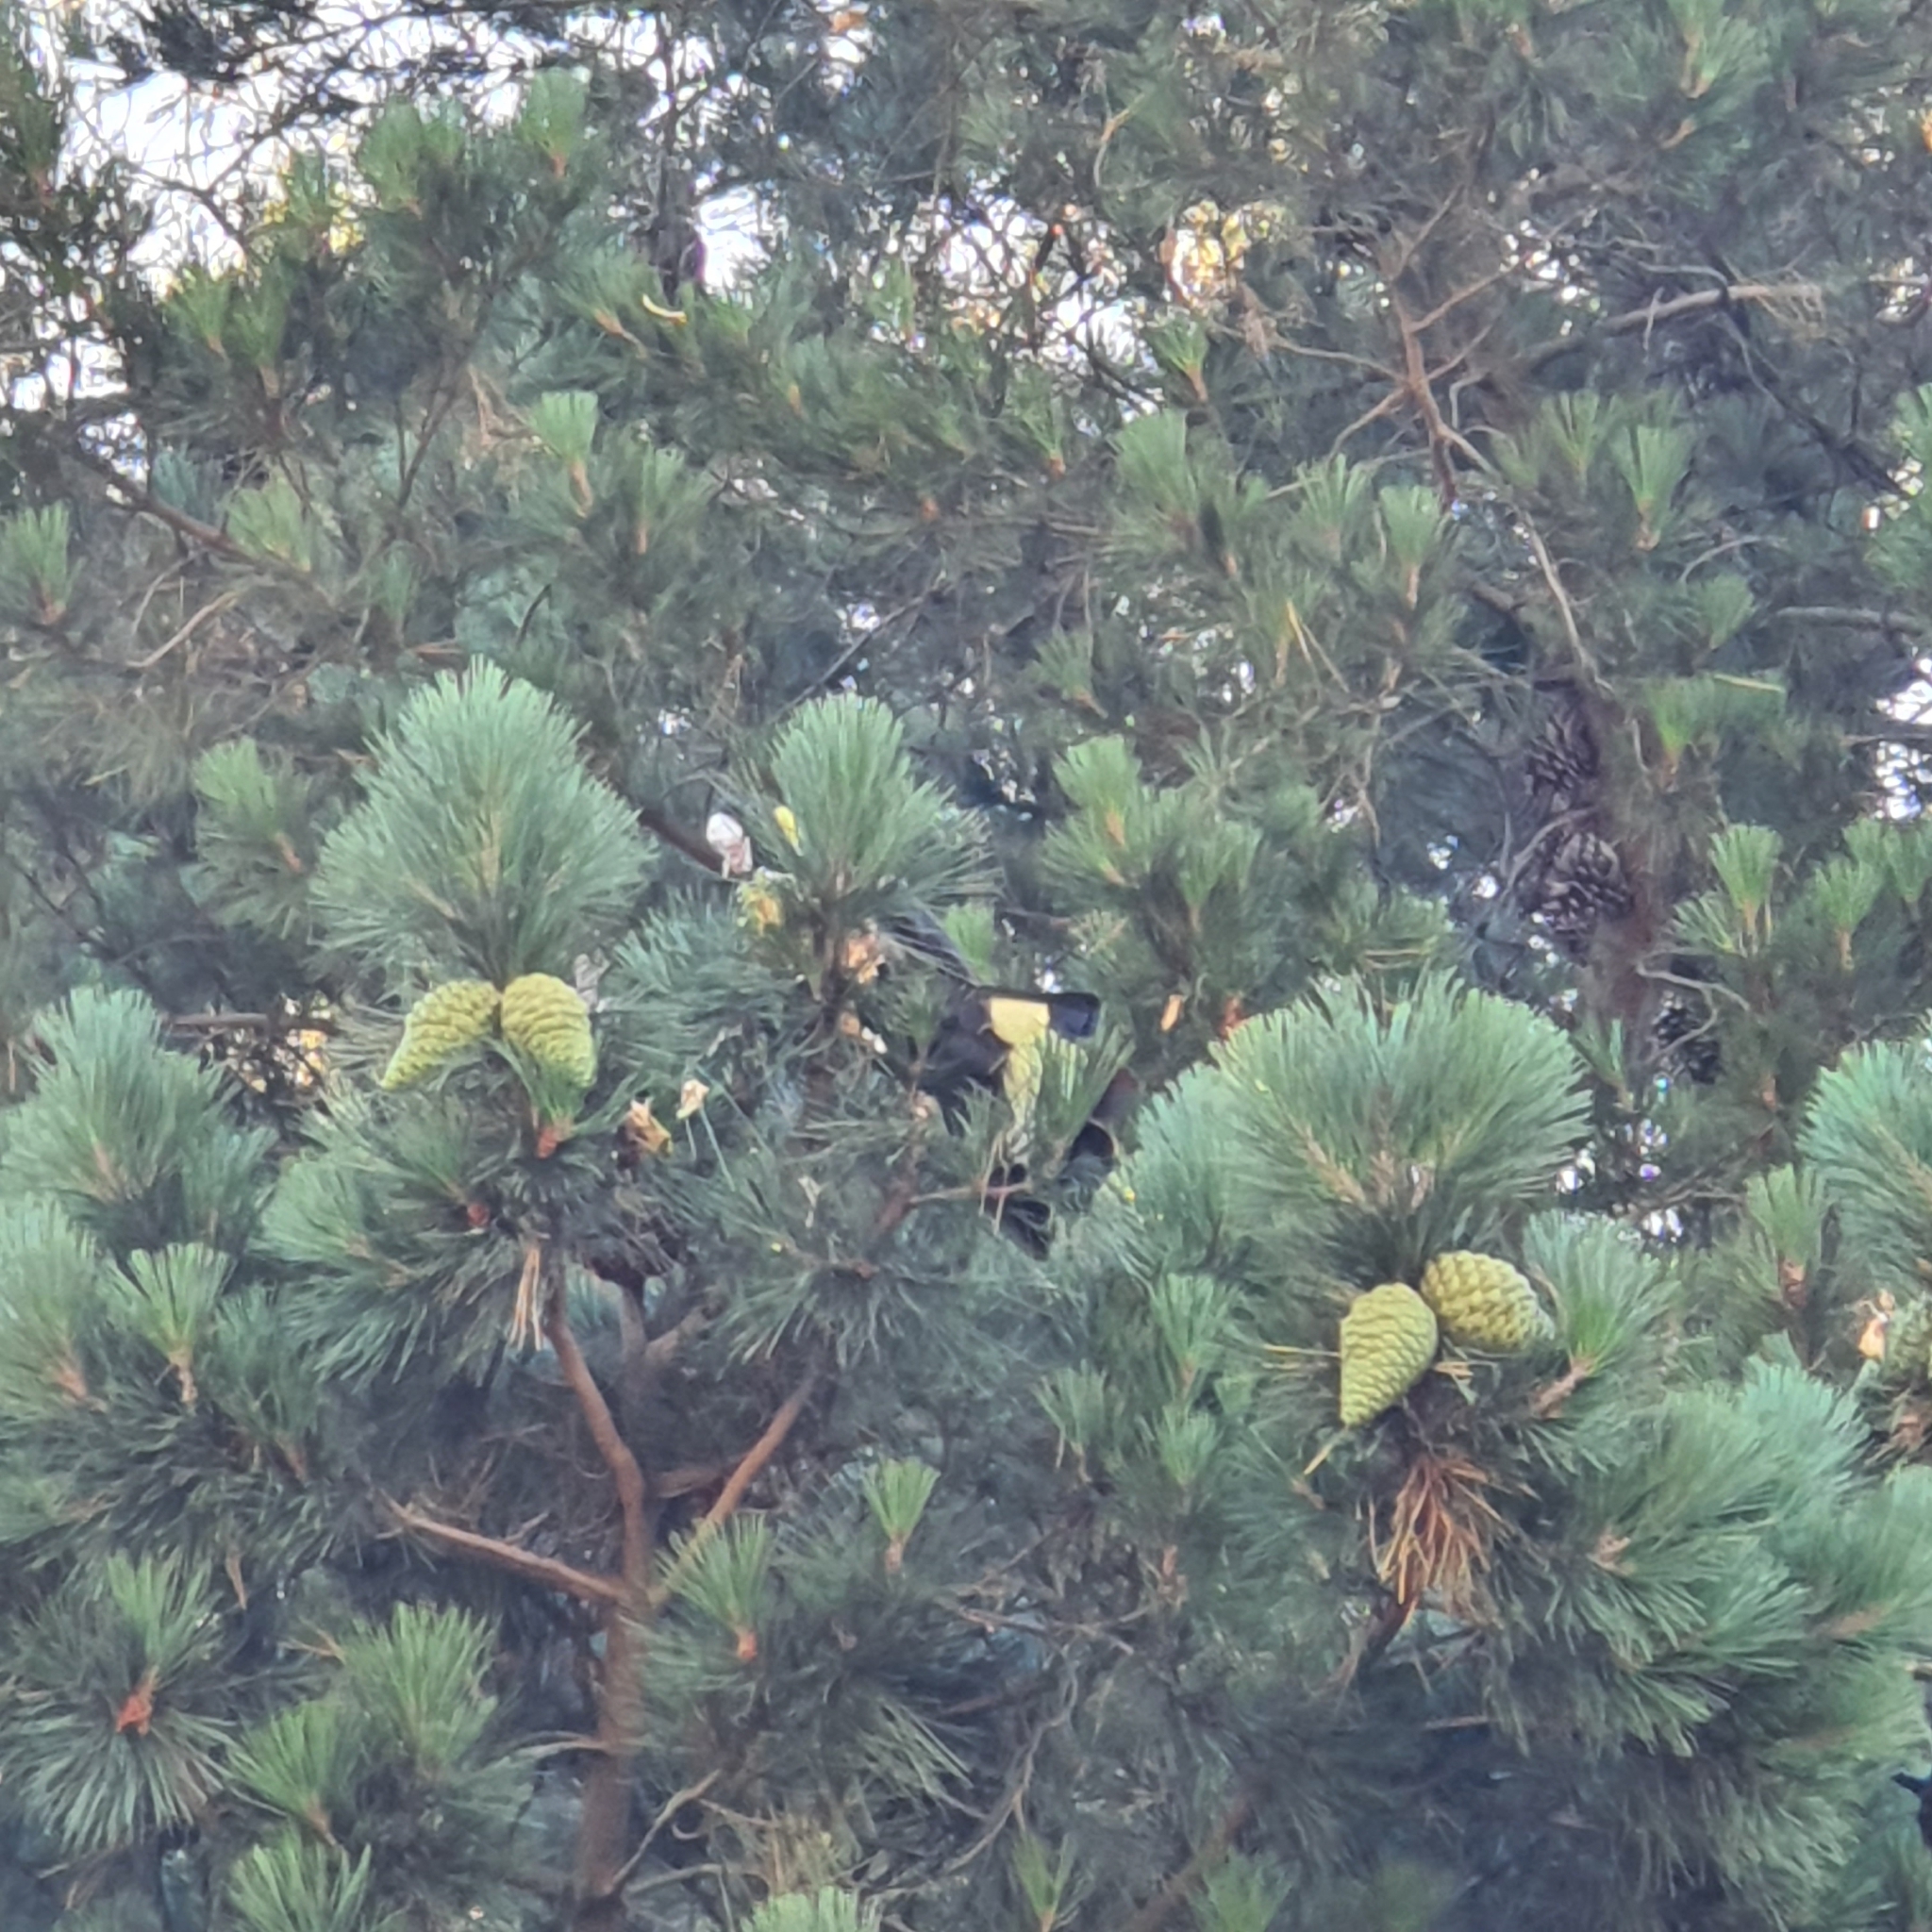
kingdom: Animalia
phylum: Chordata
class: Aves
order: Psittaciformes
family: Cacatuidae
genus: Zanda
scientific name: Zanda funerea
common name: Yellow-tailed black-cockatoo
